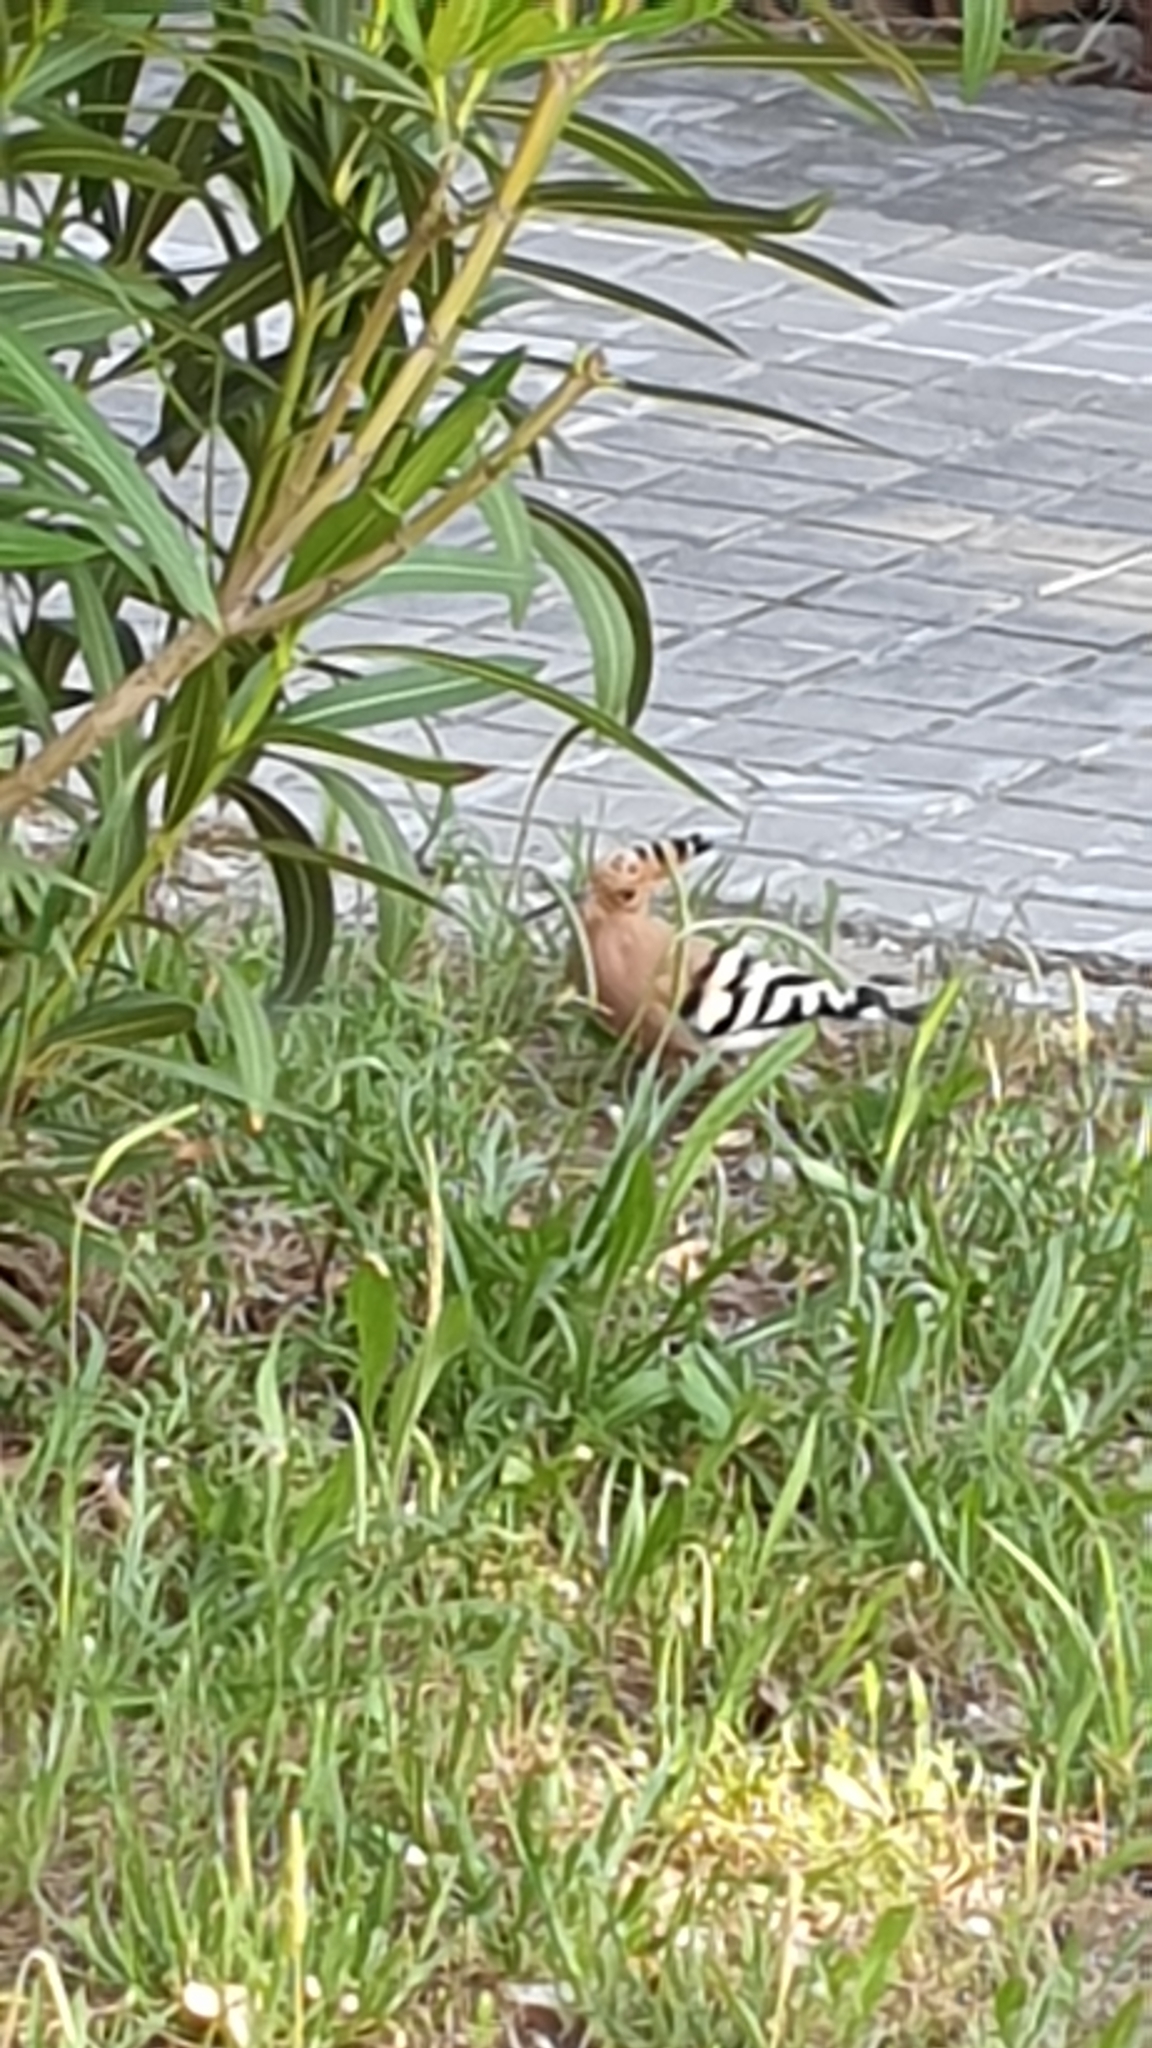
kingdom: Animalia
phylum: Chordata
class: Aves
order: Bucerotiformes
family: Upupidae
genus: Upupa
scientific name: Upupa epops
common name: Eurasian hoopoe
